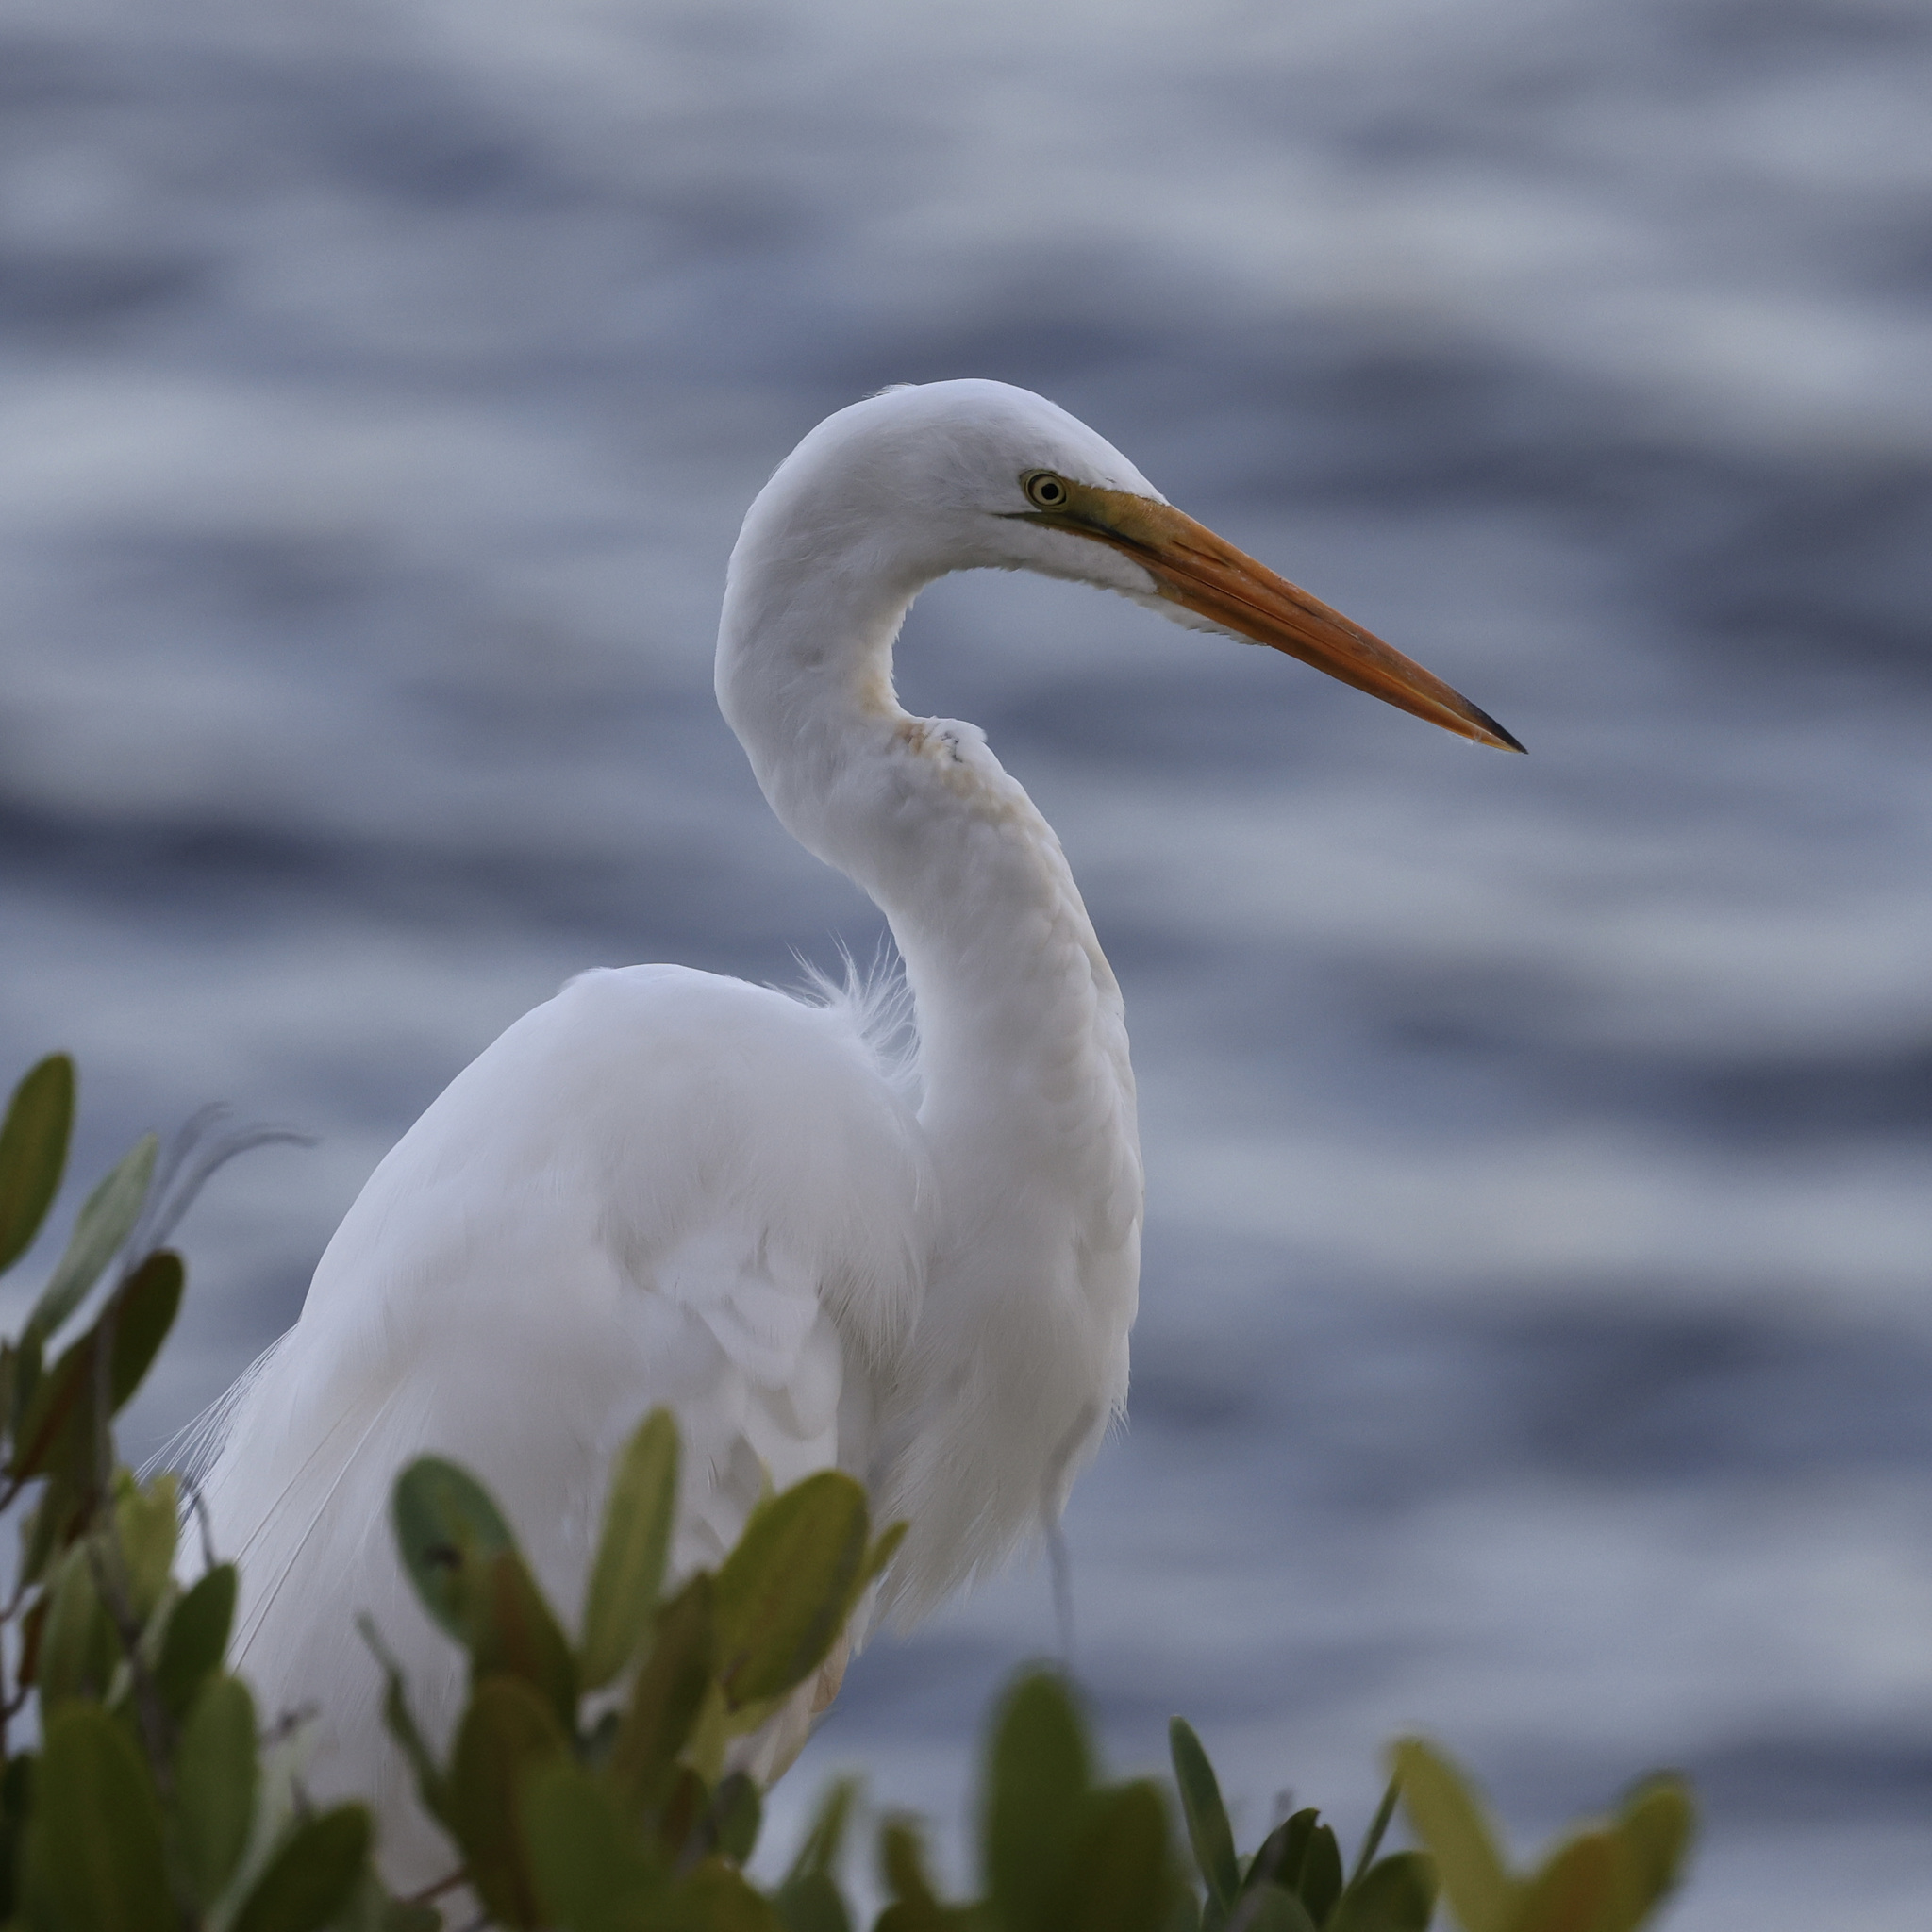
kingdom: Animalia
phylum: Chordata
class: Aves
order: Pelecaniformes
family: Ardeidae
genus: Ardea
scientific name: Ardea alba
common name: Great egret
